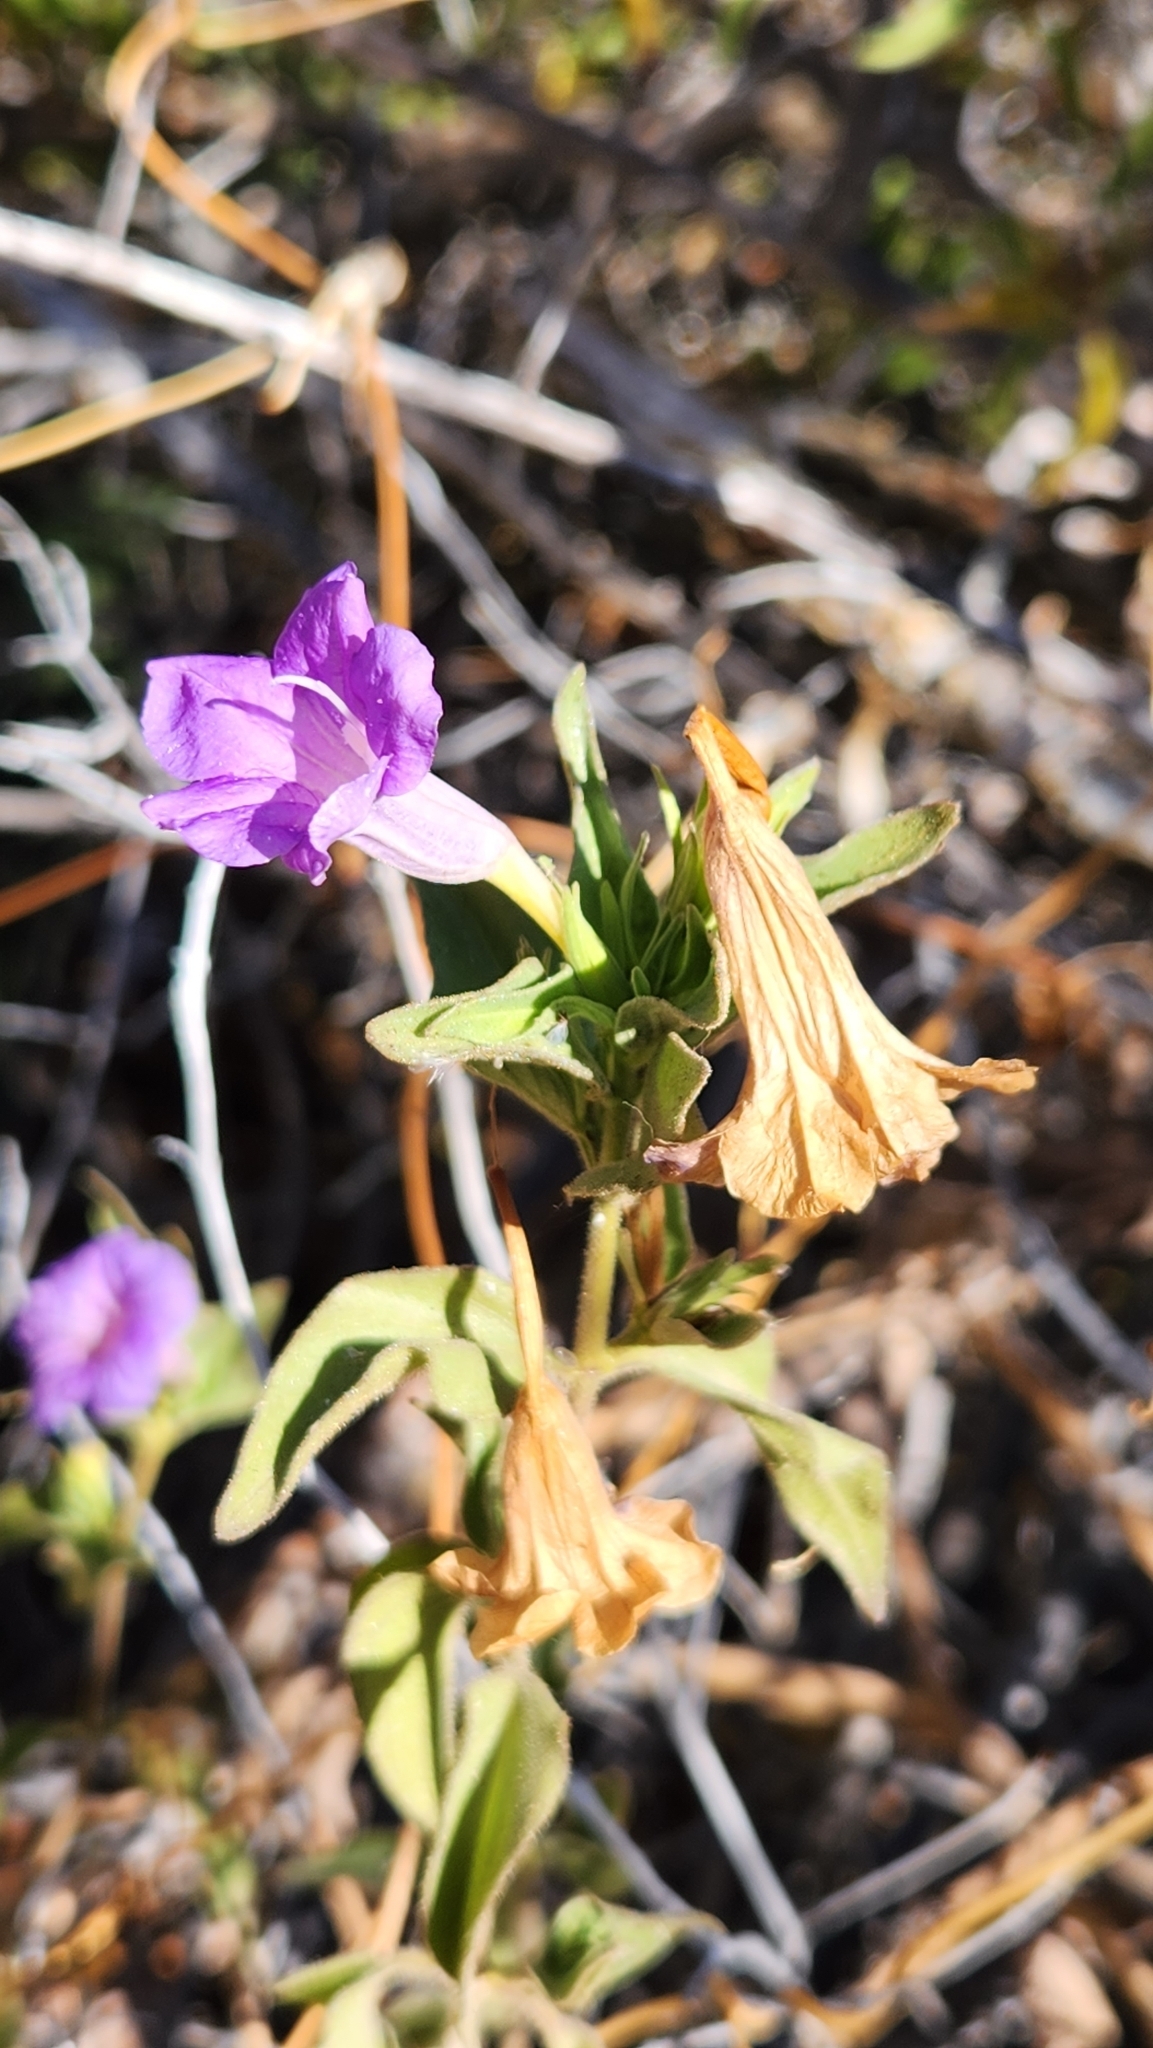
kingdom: Plantae
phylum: Tracheophyta
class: Magnoliopsida
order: Lamiales
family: Acanthaceae
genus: Ruellia
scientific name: Ruellia californica
